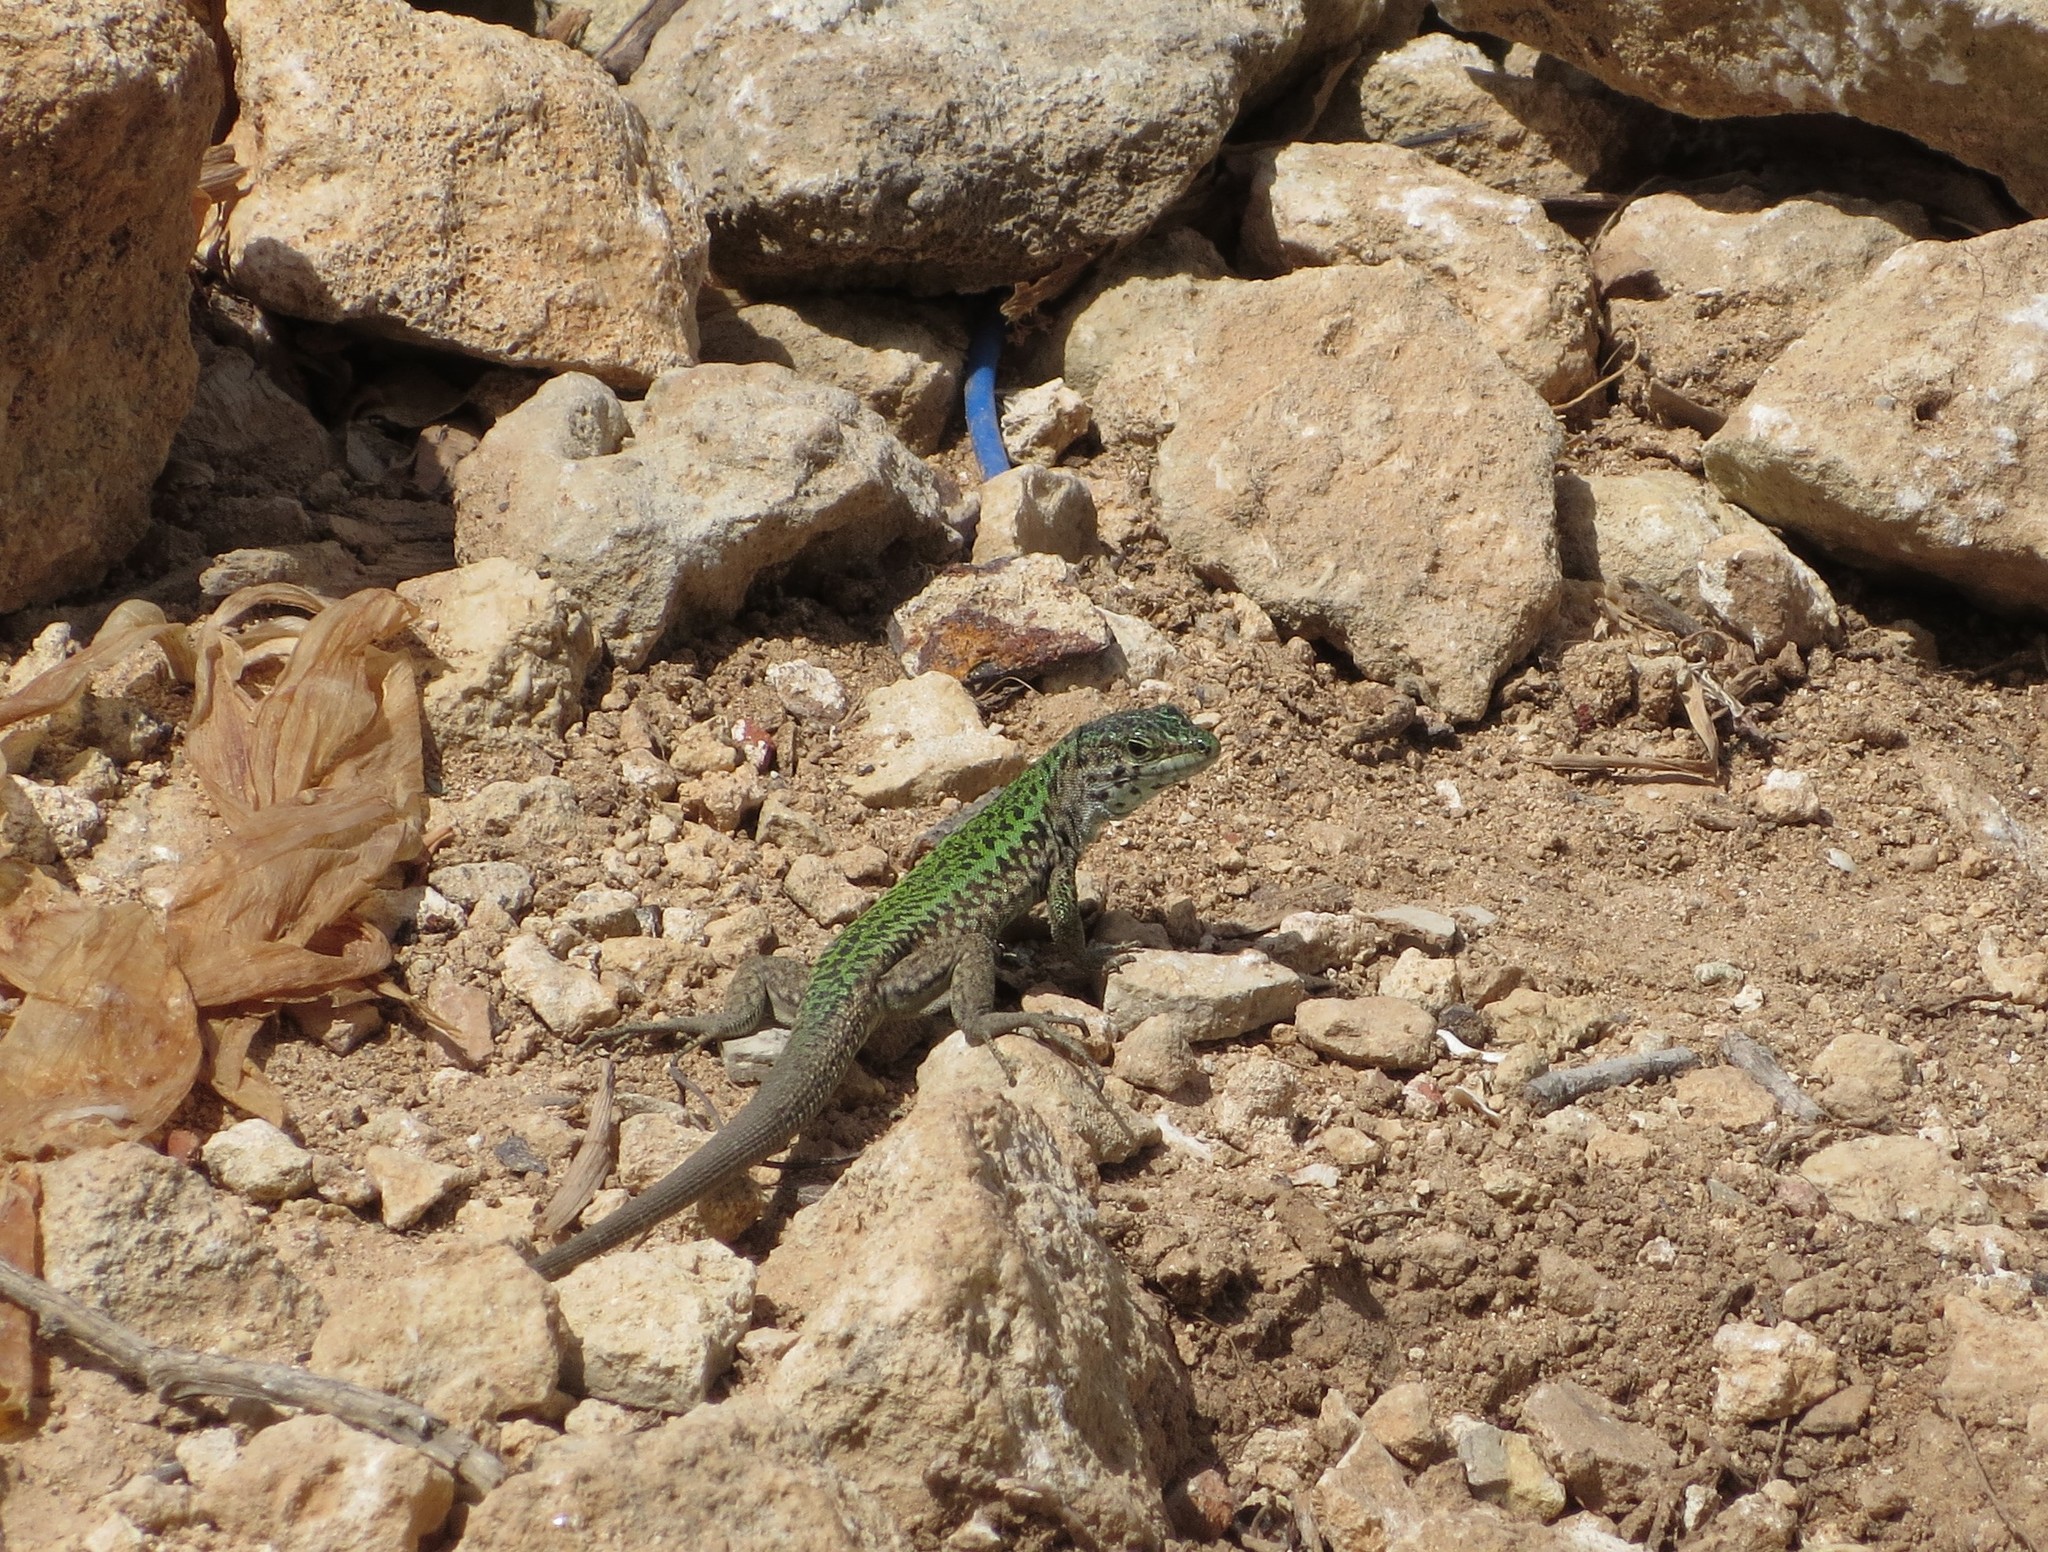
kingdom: Animalia
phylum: Chordata
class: Squamata
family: Lacertidae
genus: Podarcis
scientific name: Podarcis filfolensis
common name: Maltese wall lizard
